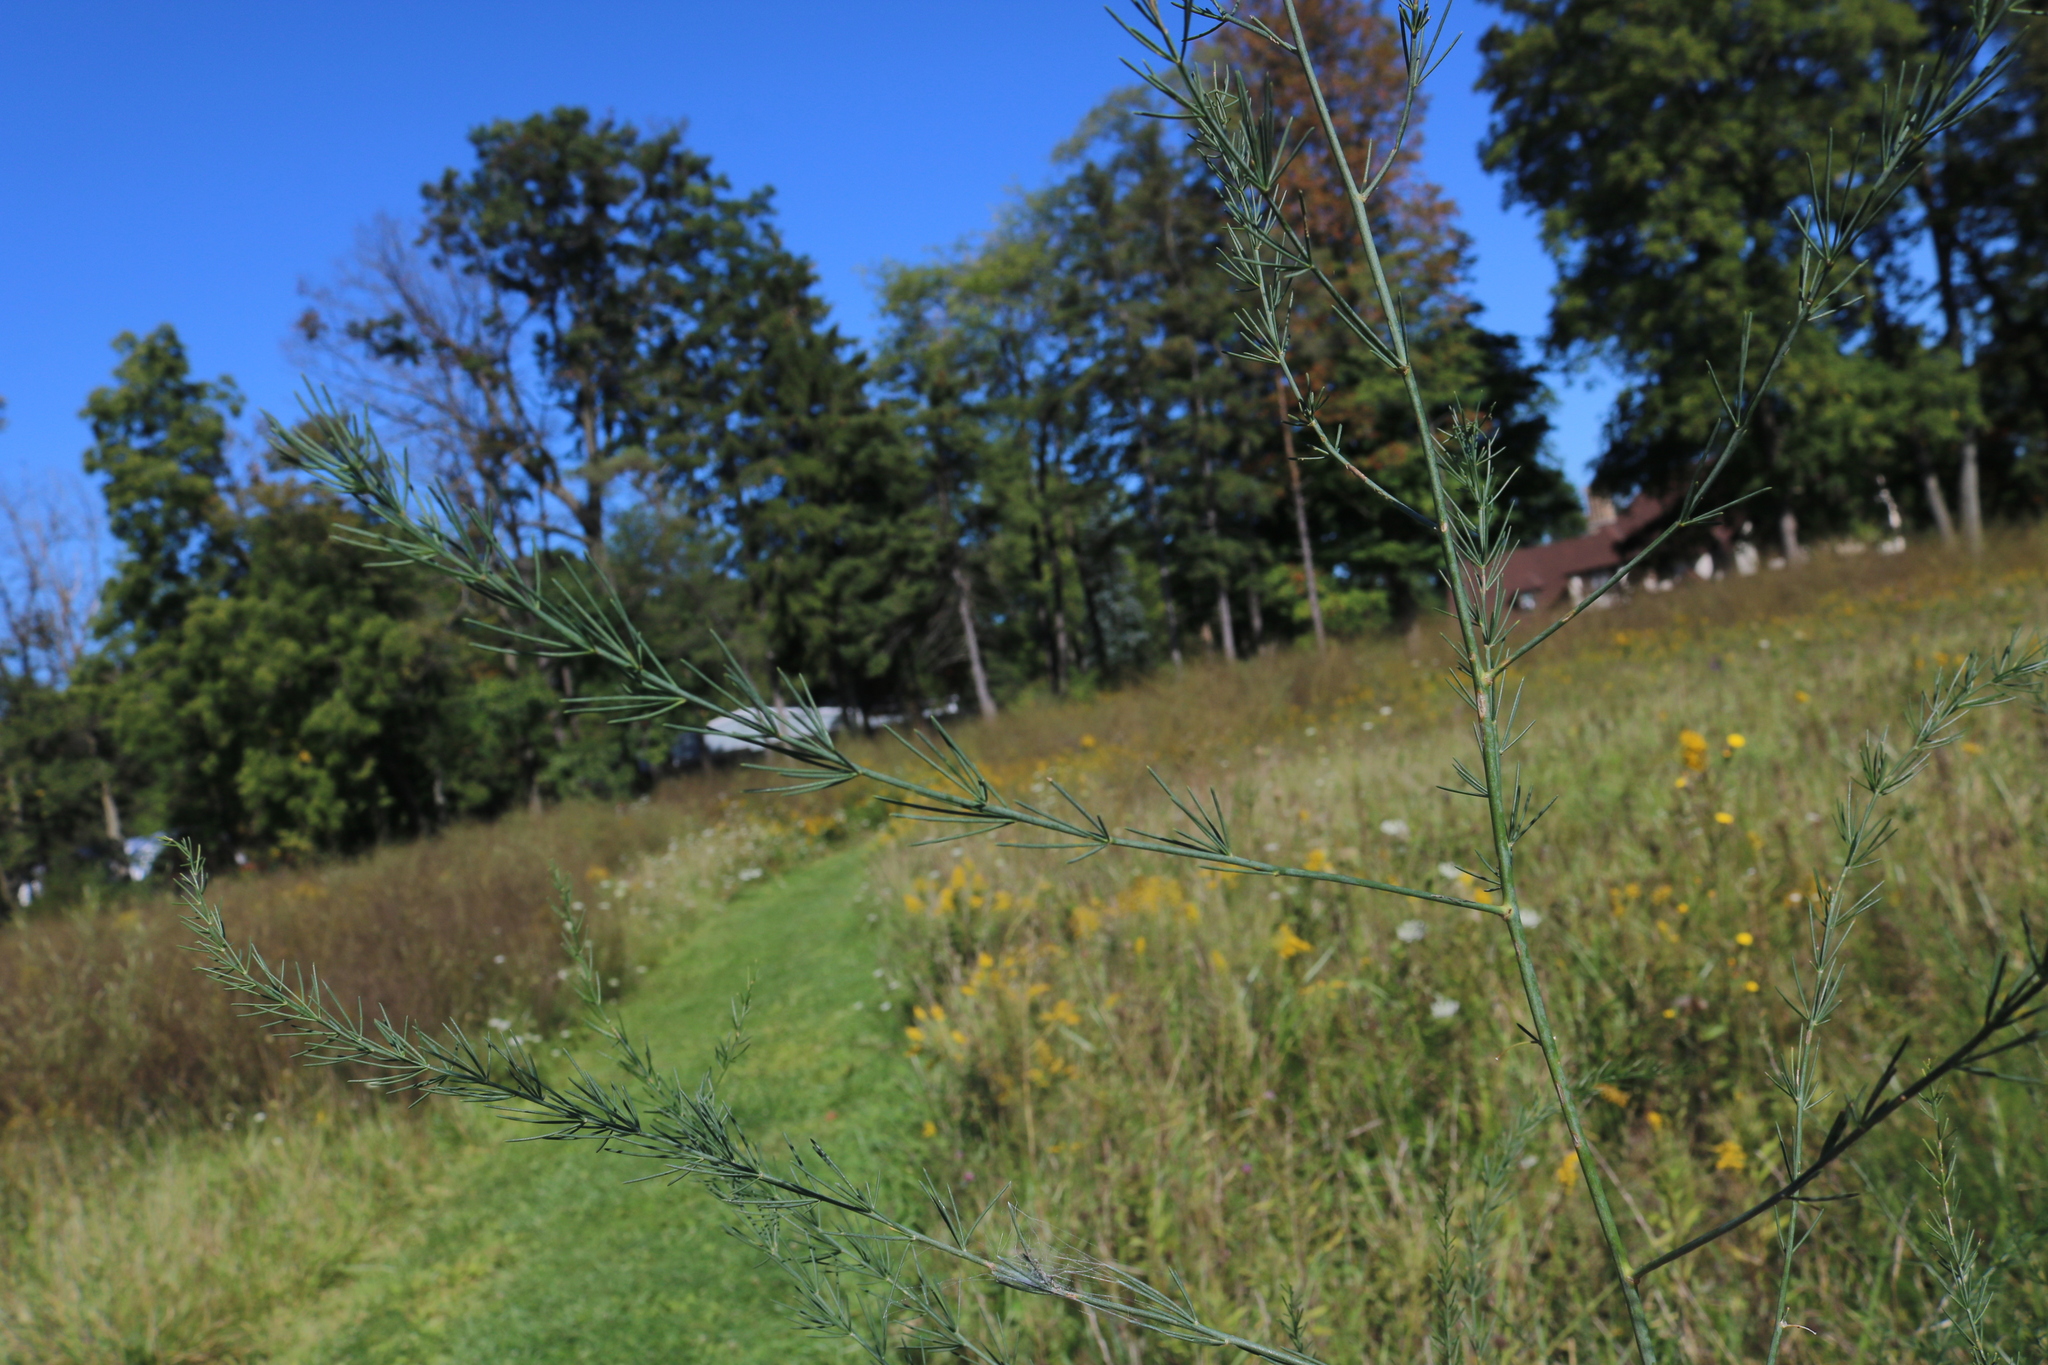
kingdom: Plantae
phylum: Tracheophyta
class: Liliopsida
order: Asparagales
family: Asparagaceae
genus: Asparagus
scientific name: Asparagus officinalis
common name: Garden asparagus
